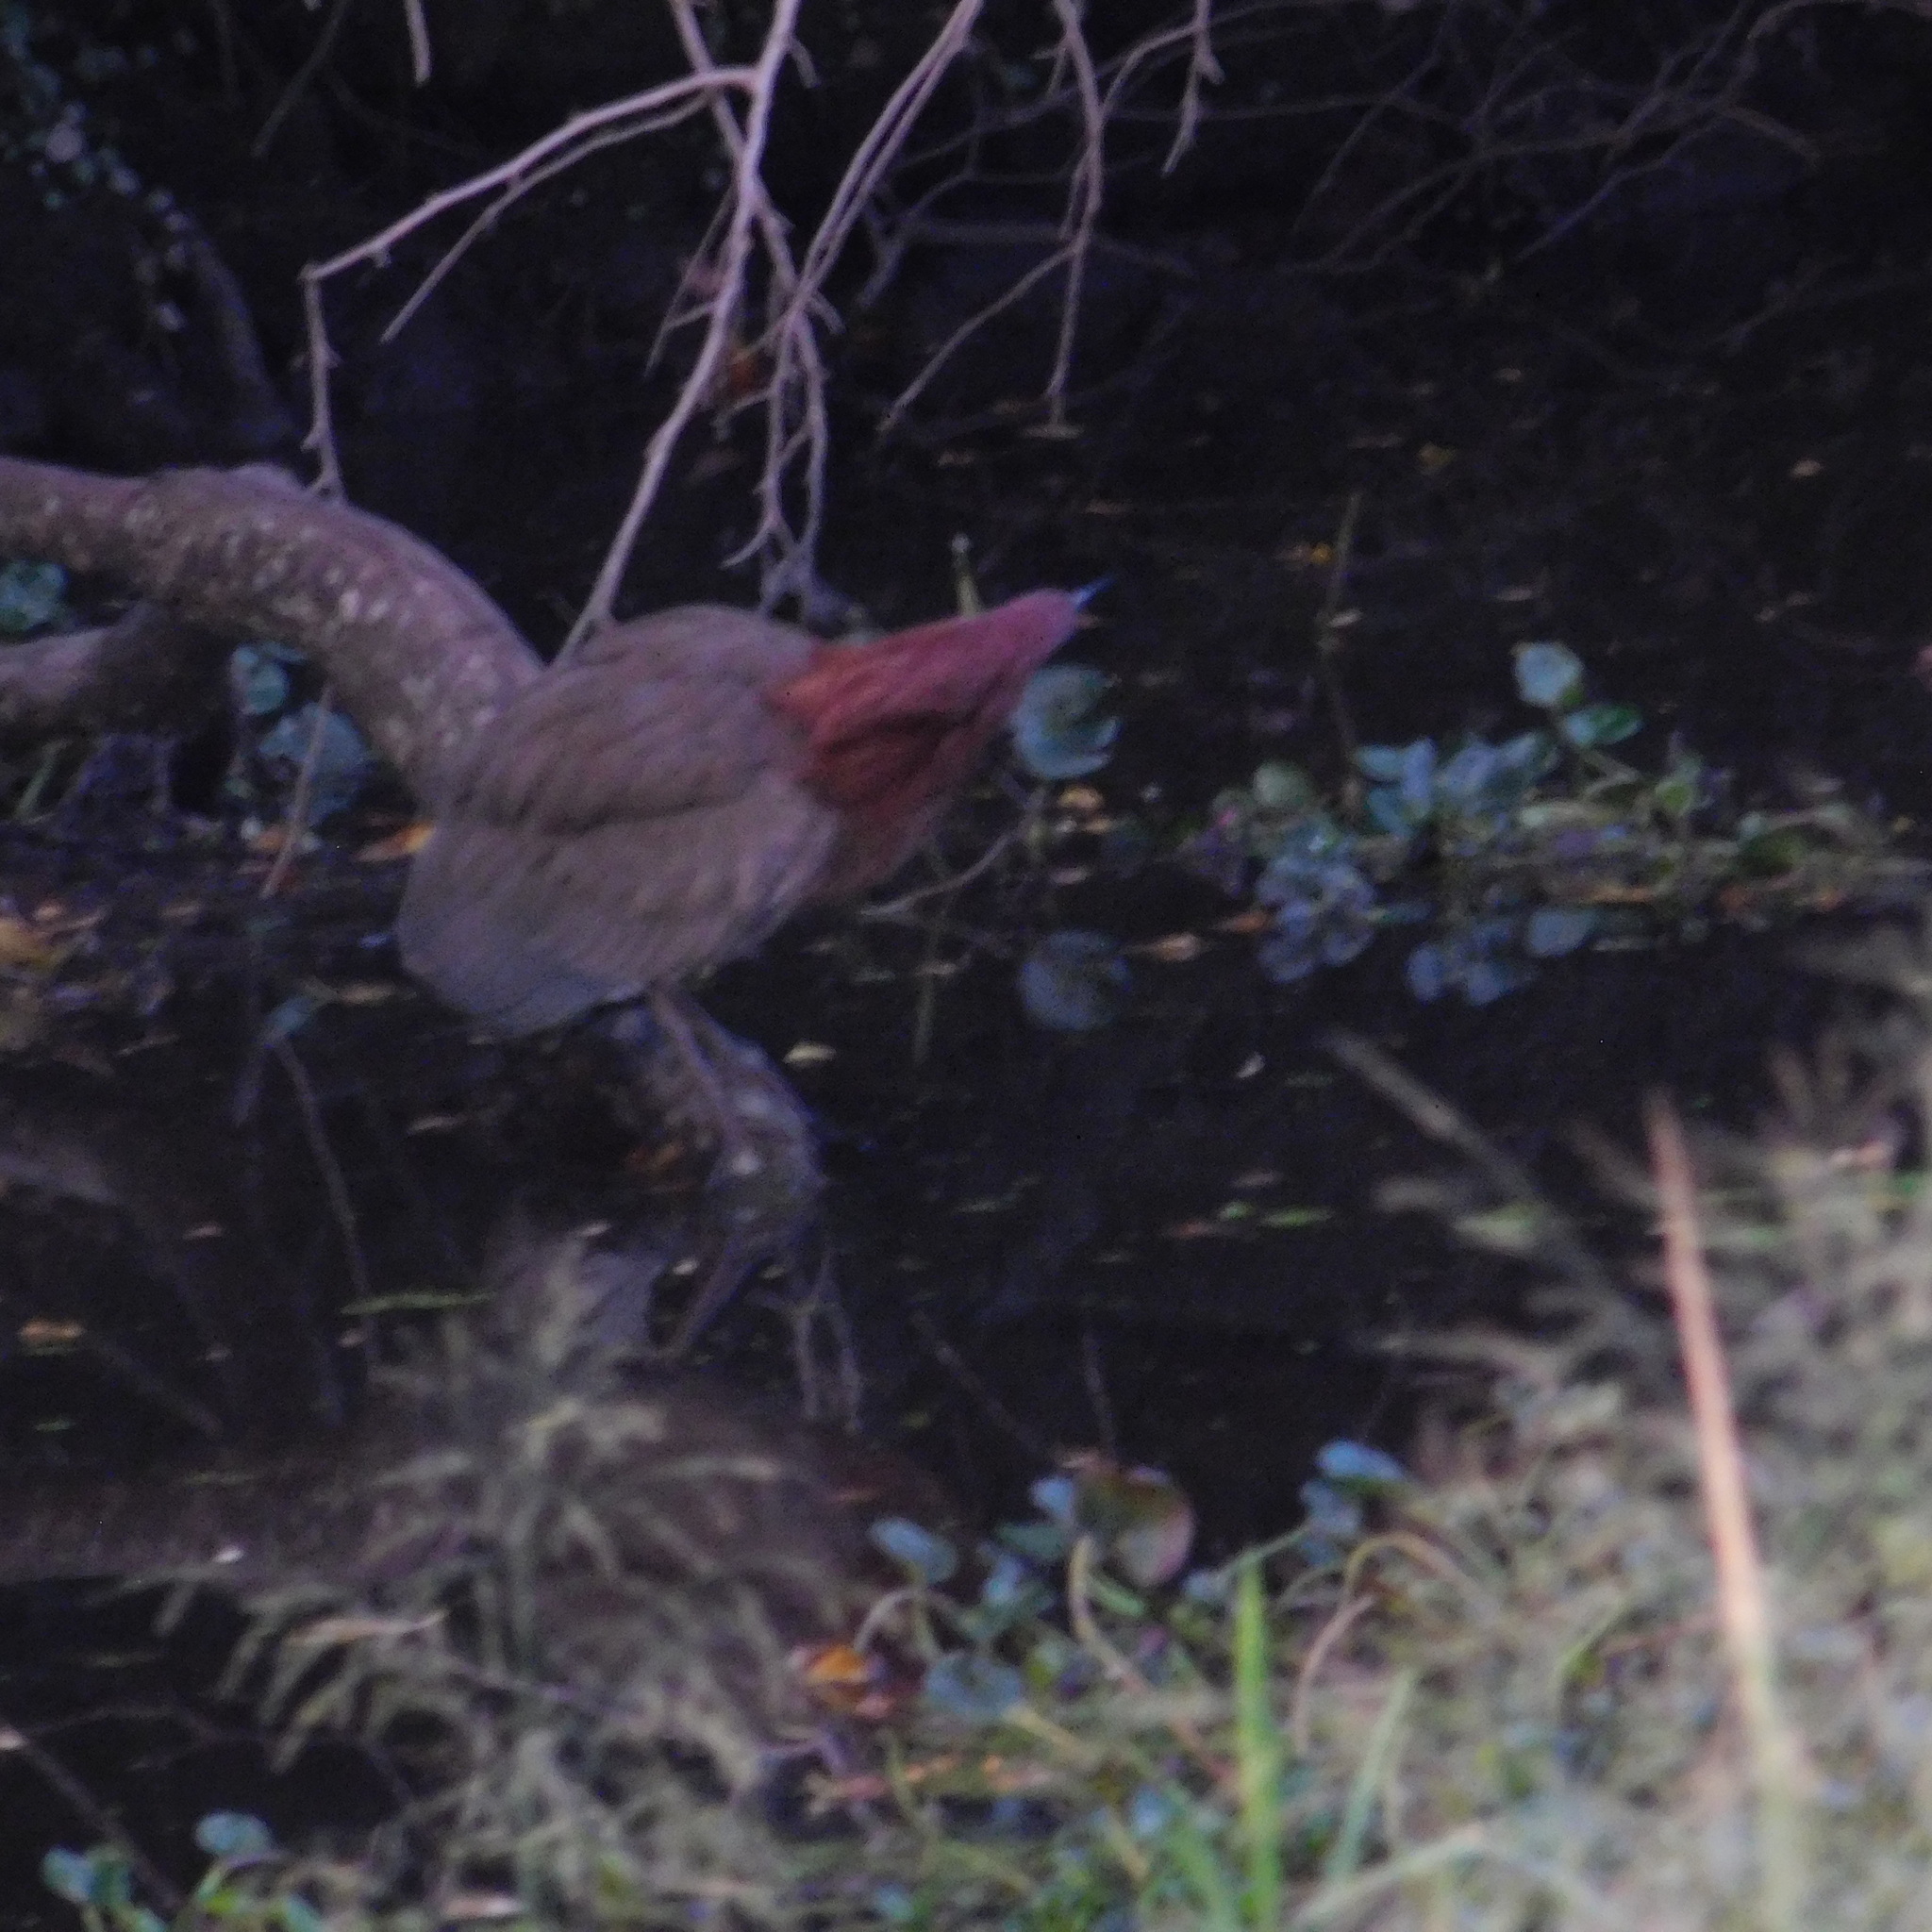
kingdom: Animalia
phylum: Chordata
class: Aves
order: Pelecaniformes
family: Ardeidae
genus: Tigrisoma
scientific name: Tigrisoma lineatum
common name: Rufescent tiger-heron
